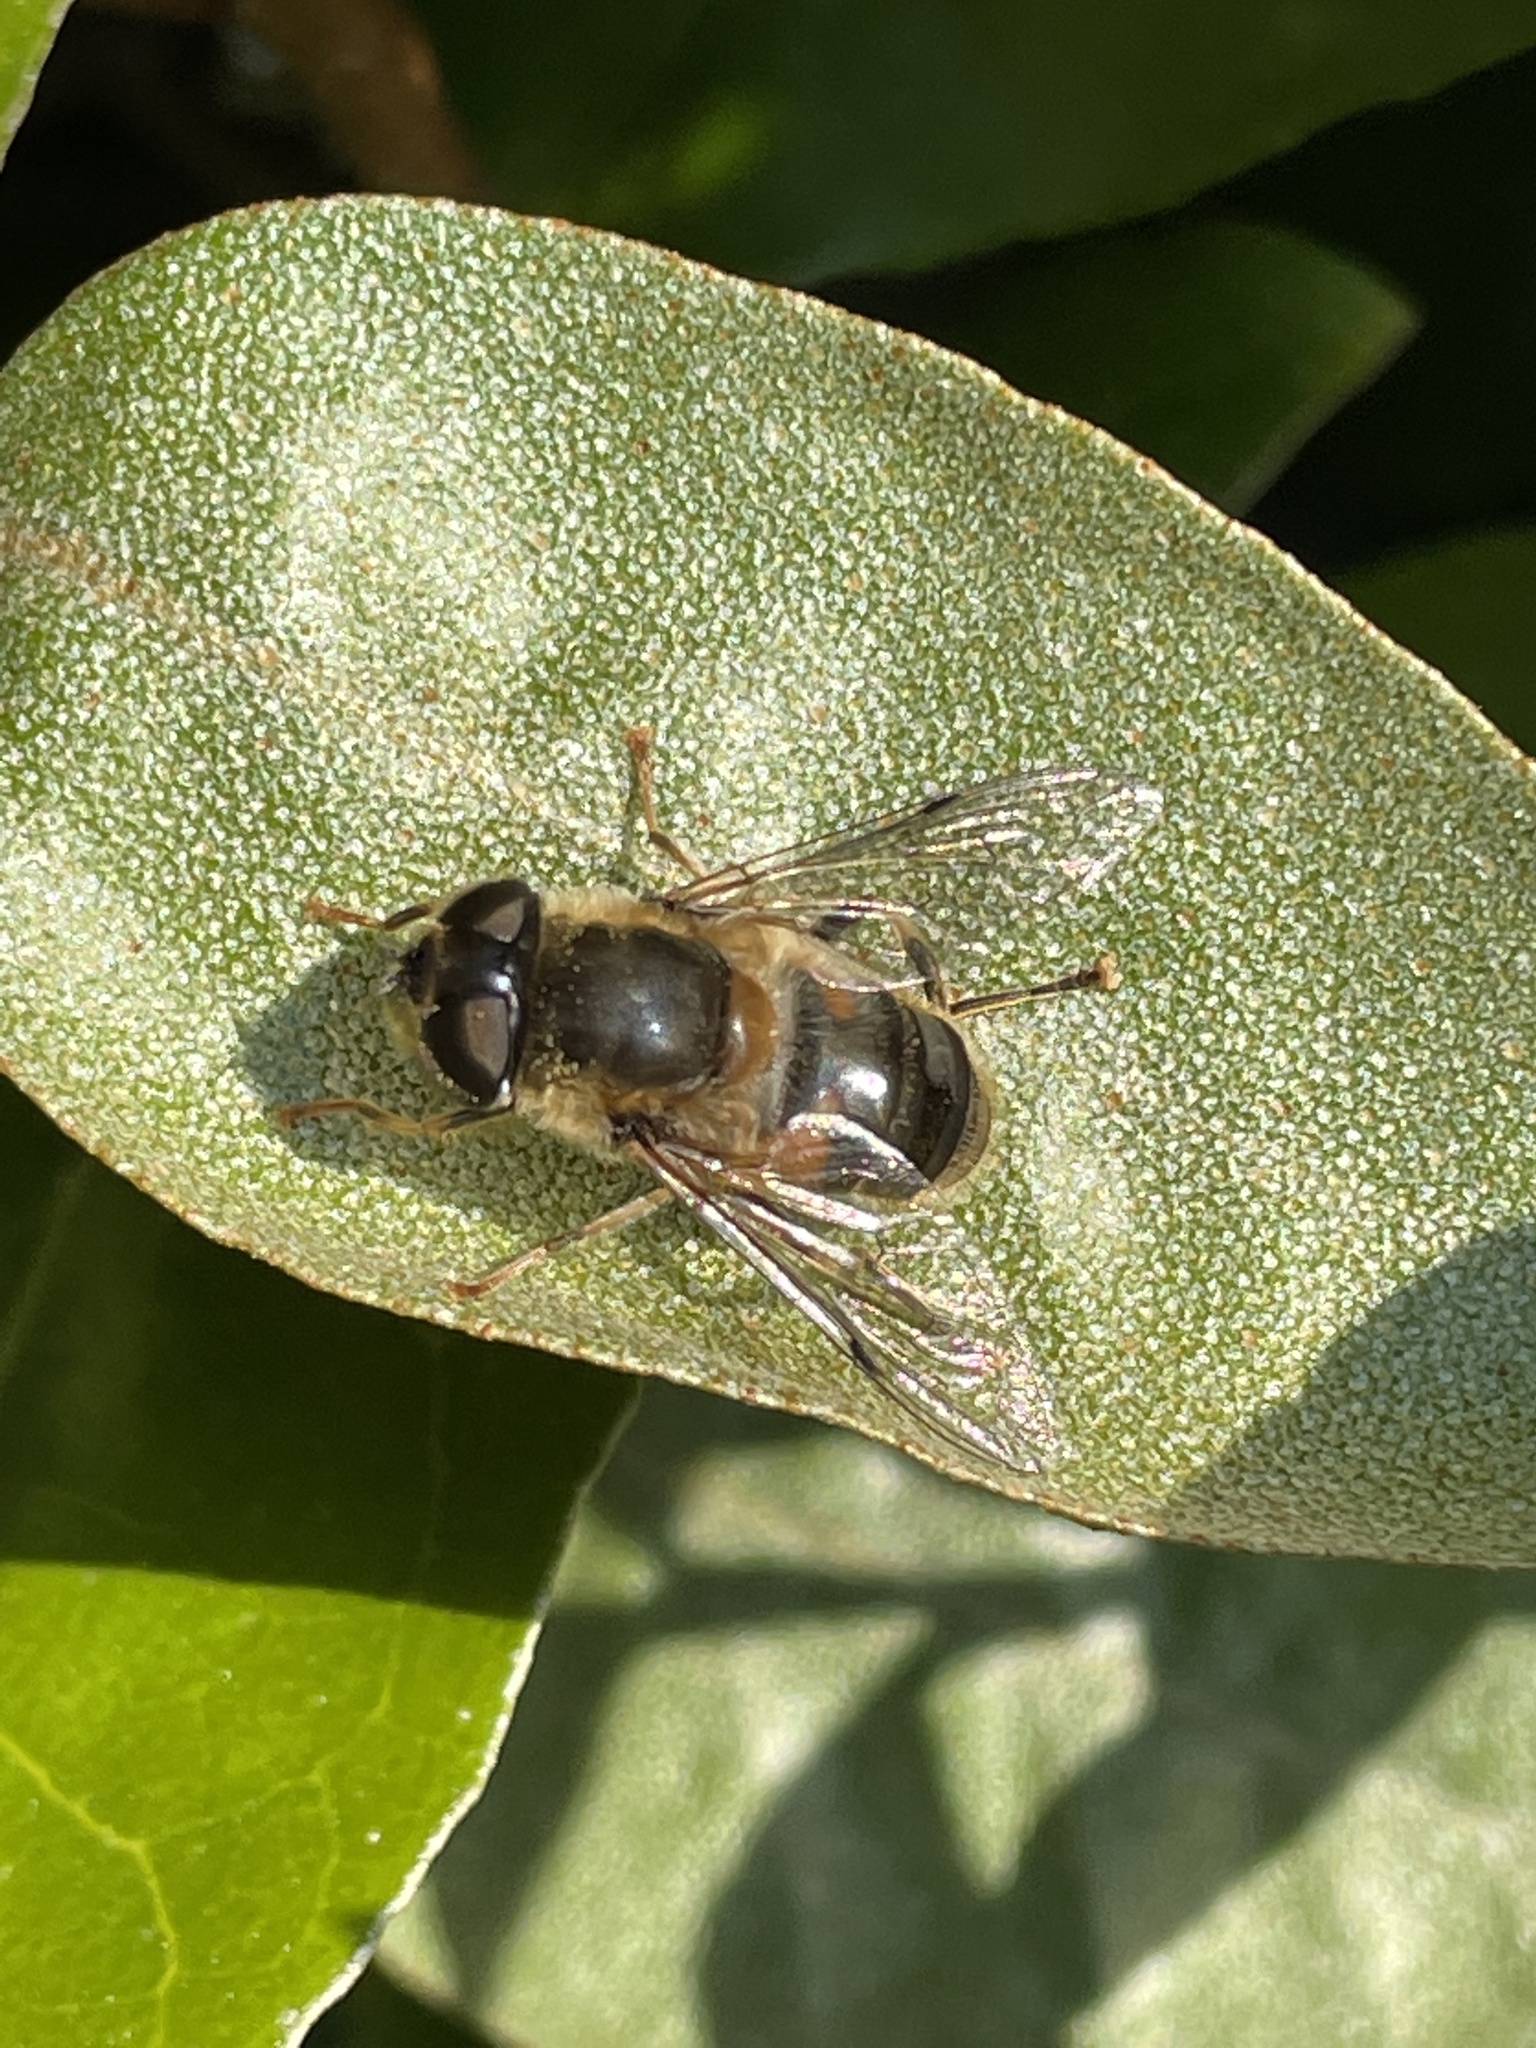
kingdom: Animalia
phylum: Arthropoda
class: Insecta
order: Diptera
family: Syrphidae
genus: Eristalis
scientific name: Eristalis pertinax
